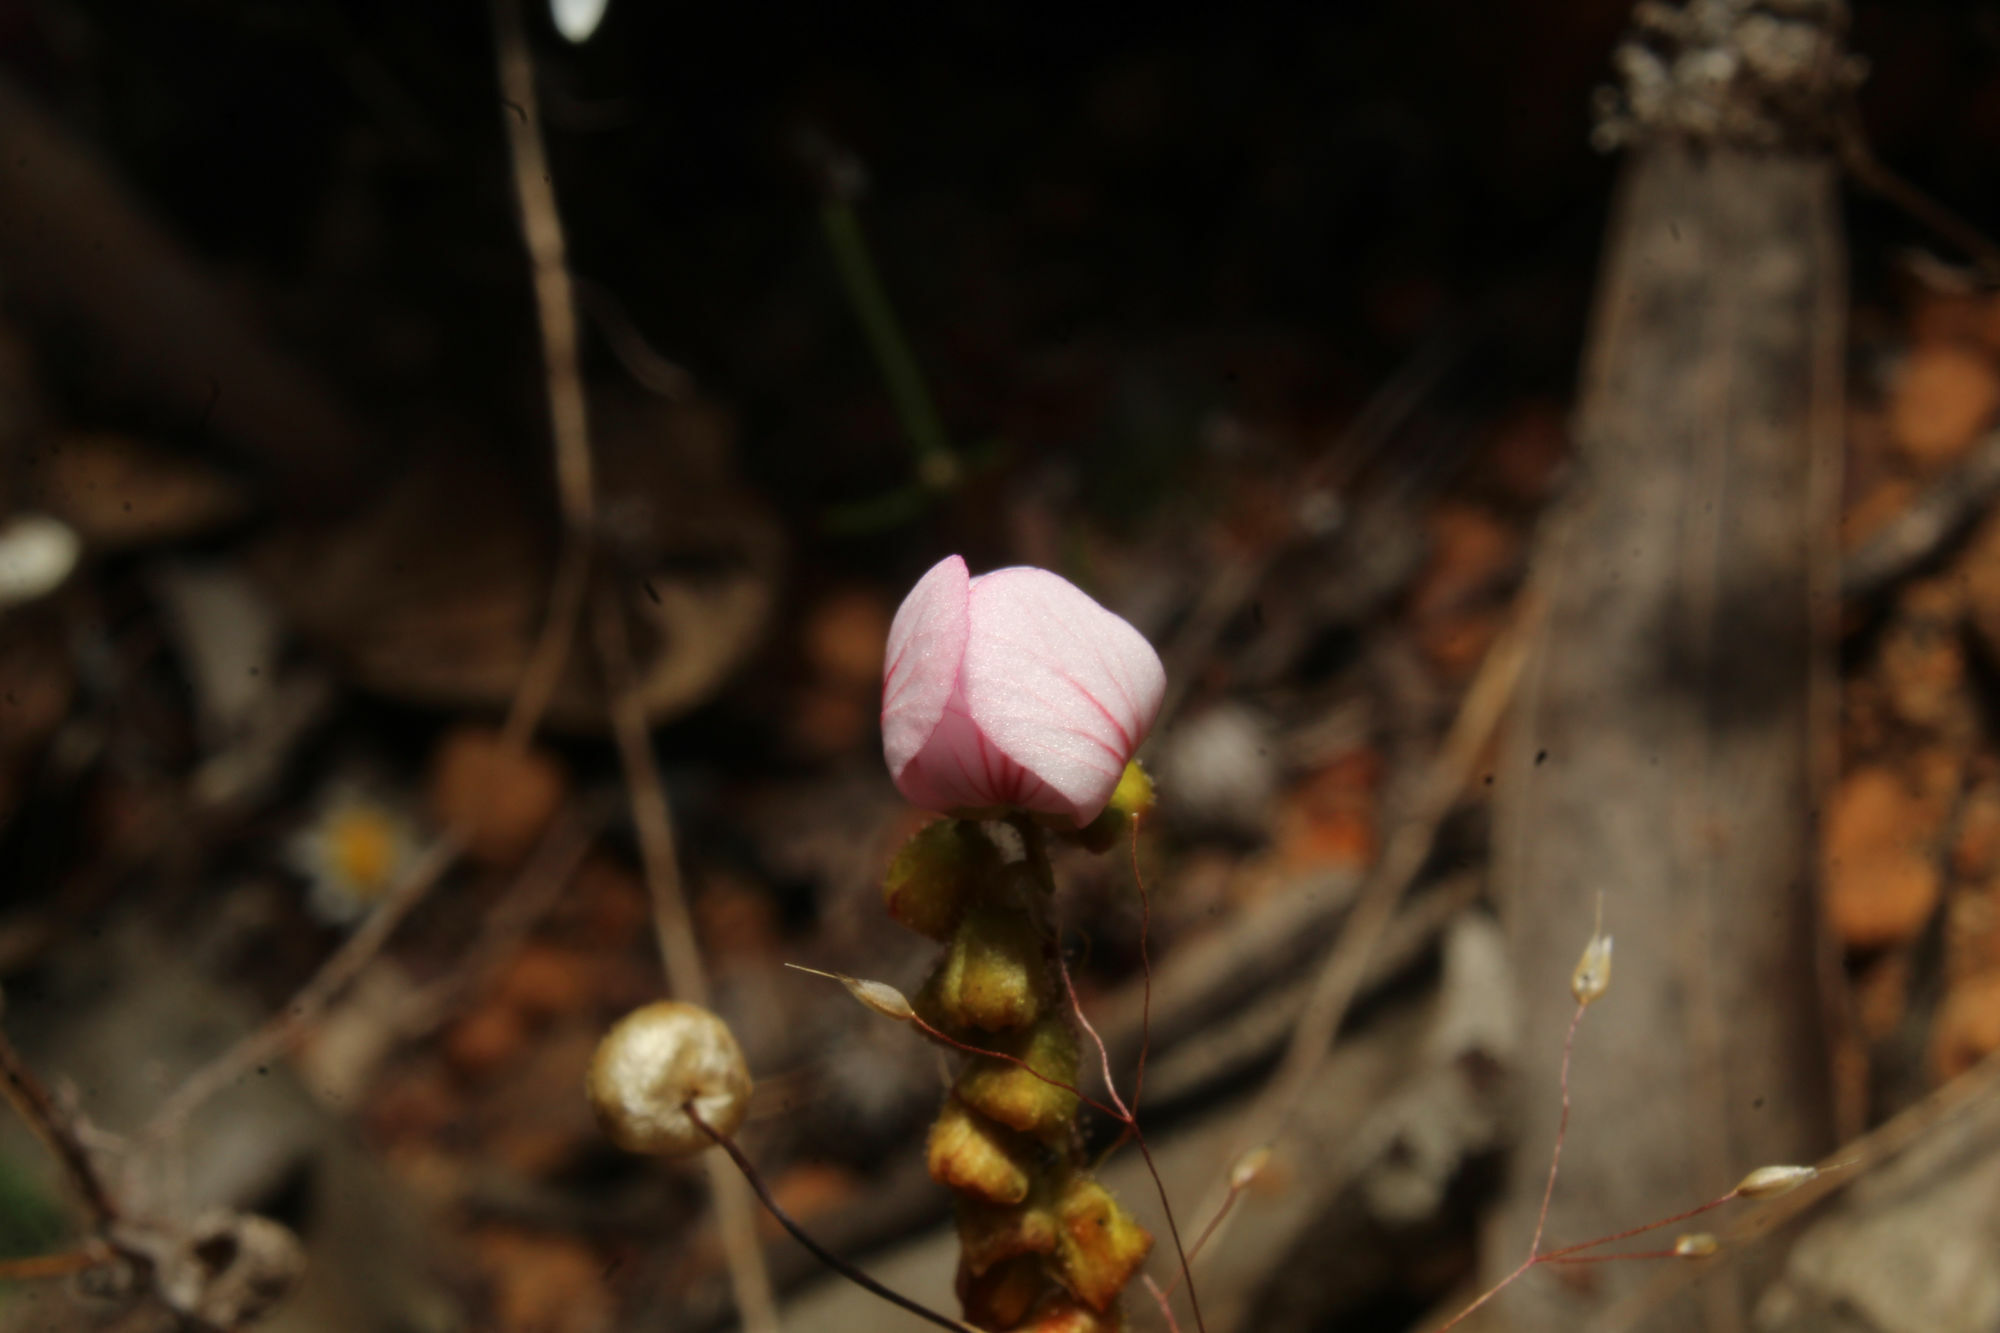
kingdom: Plantae
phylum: Tracheophyta
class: Magnoliopsida
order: Caryophyllales
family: Droseraceae
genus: Drosera
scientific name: Drosera spilos
